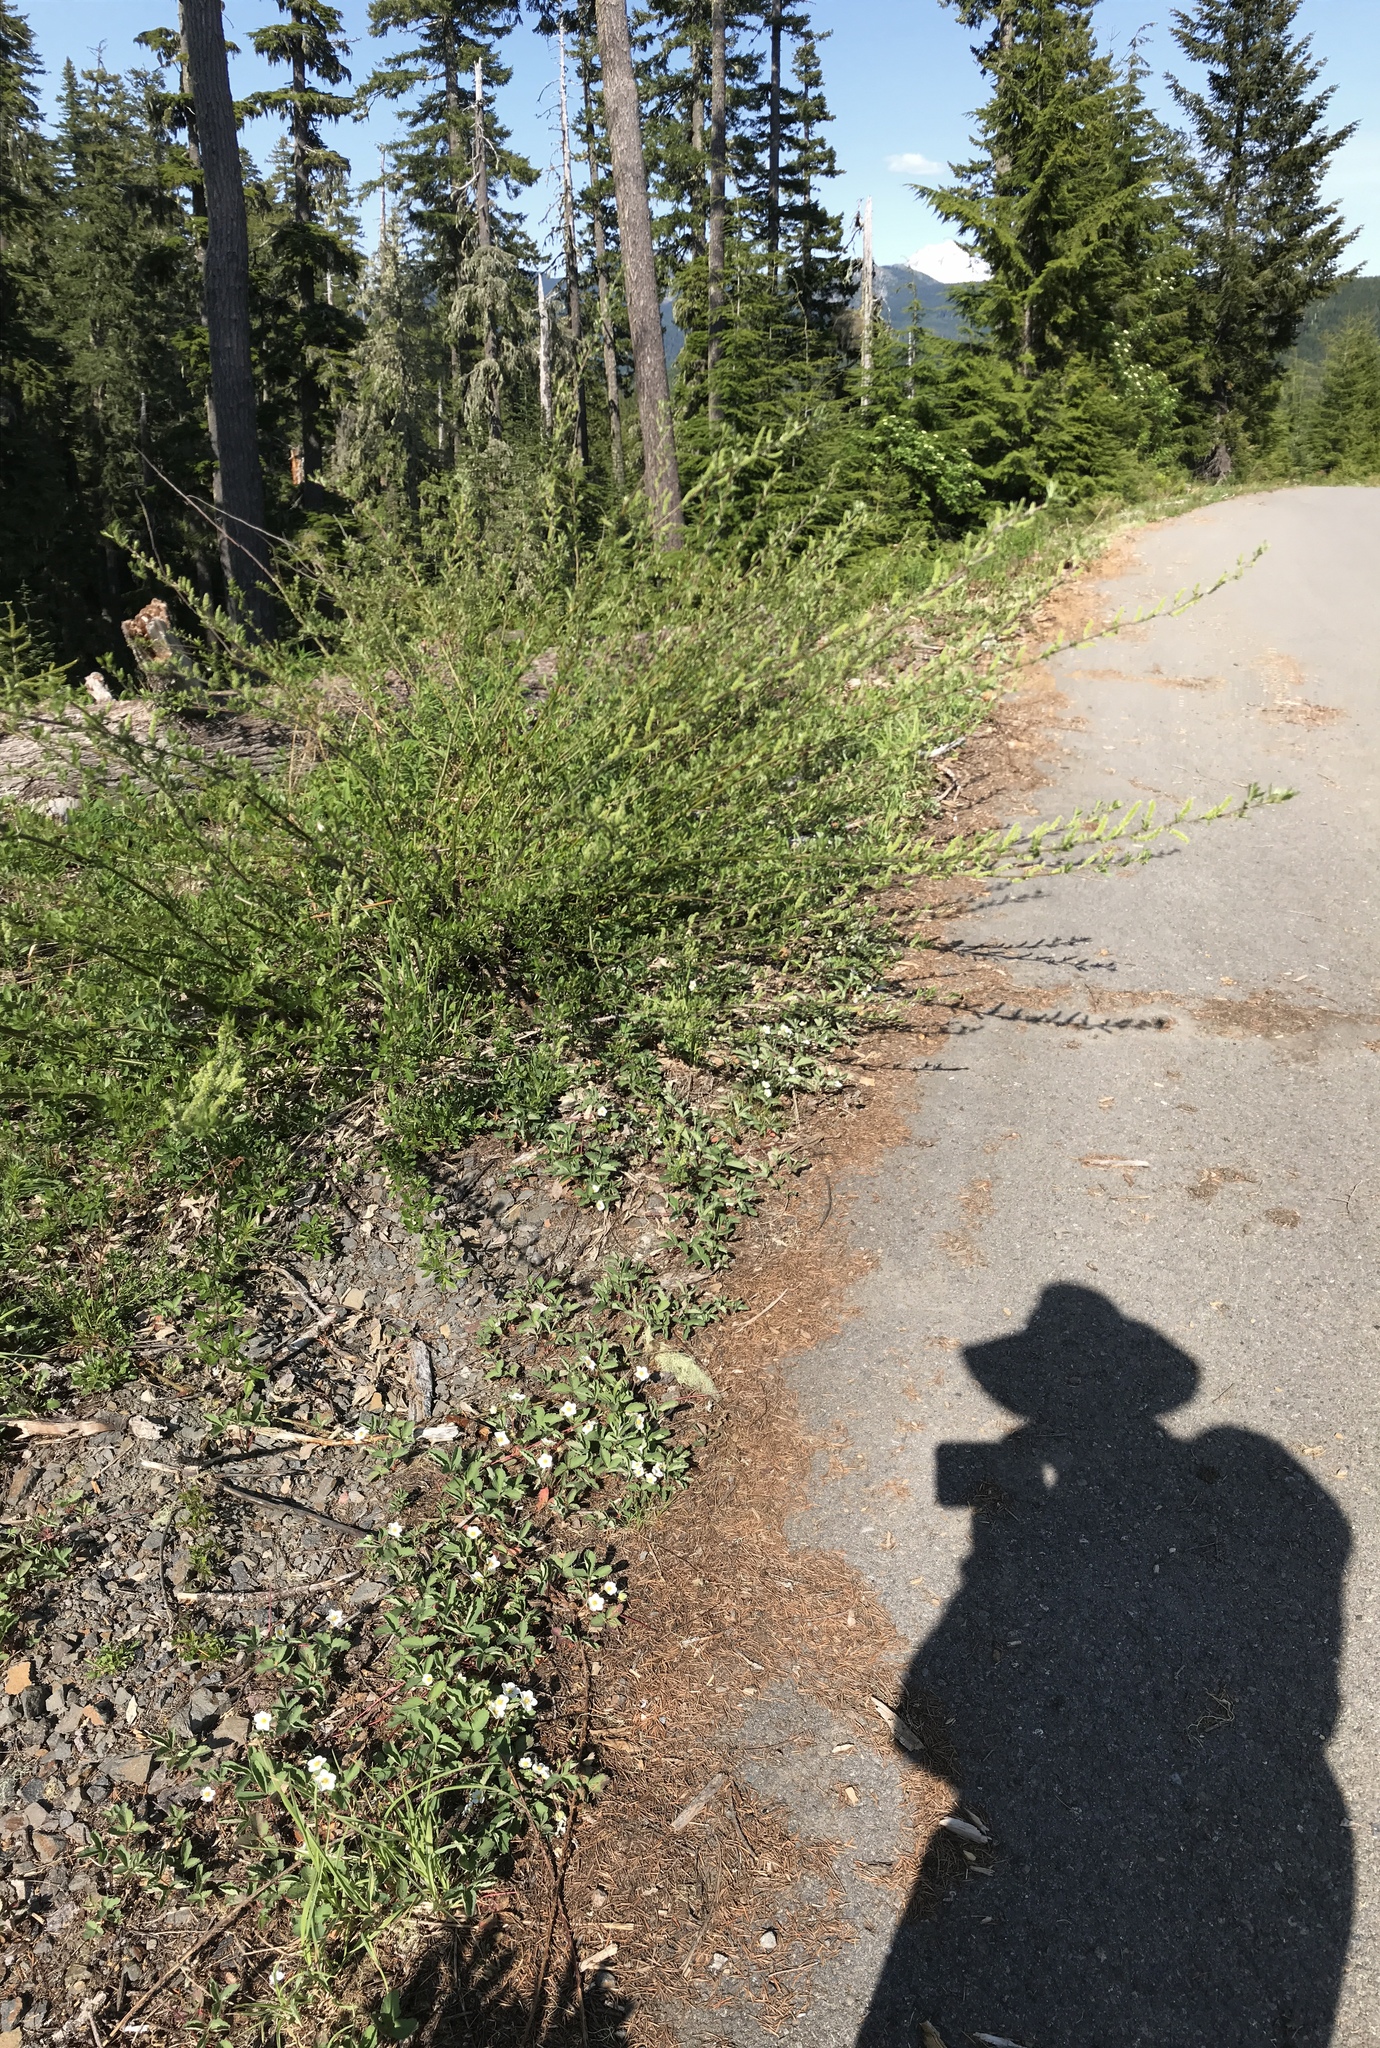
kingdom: Plantae
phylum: Tracheophyta
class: Magnoliopsida
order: Rosales
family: Rosaceae
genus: Fragaria
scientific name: Fragaria cascadensis
